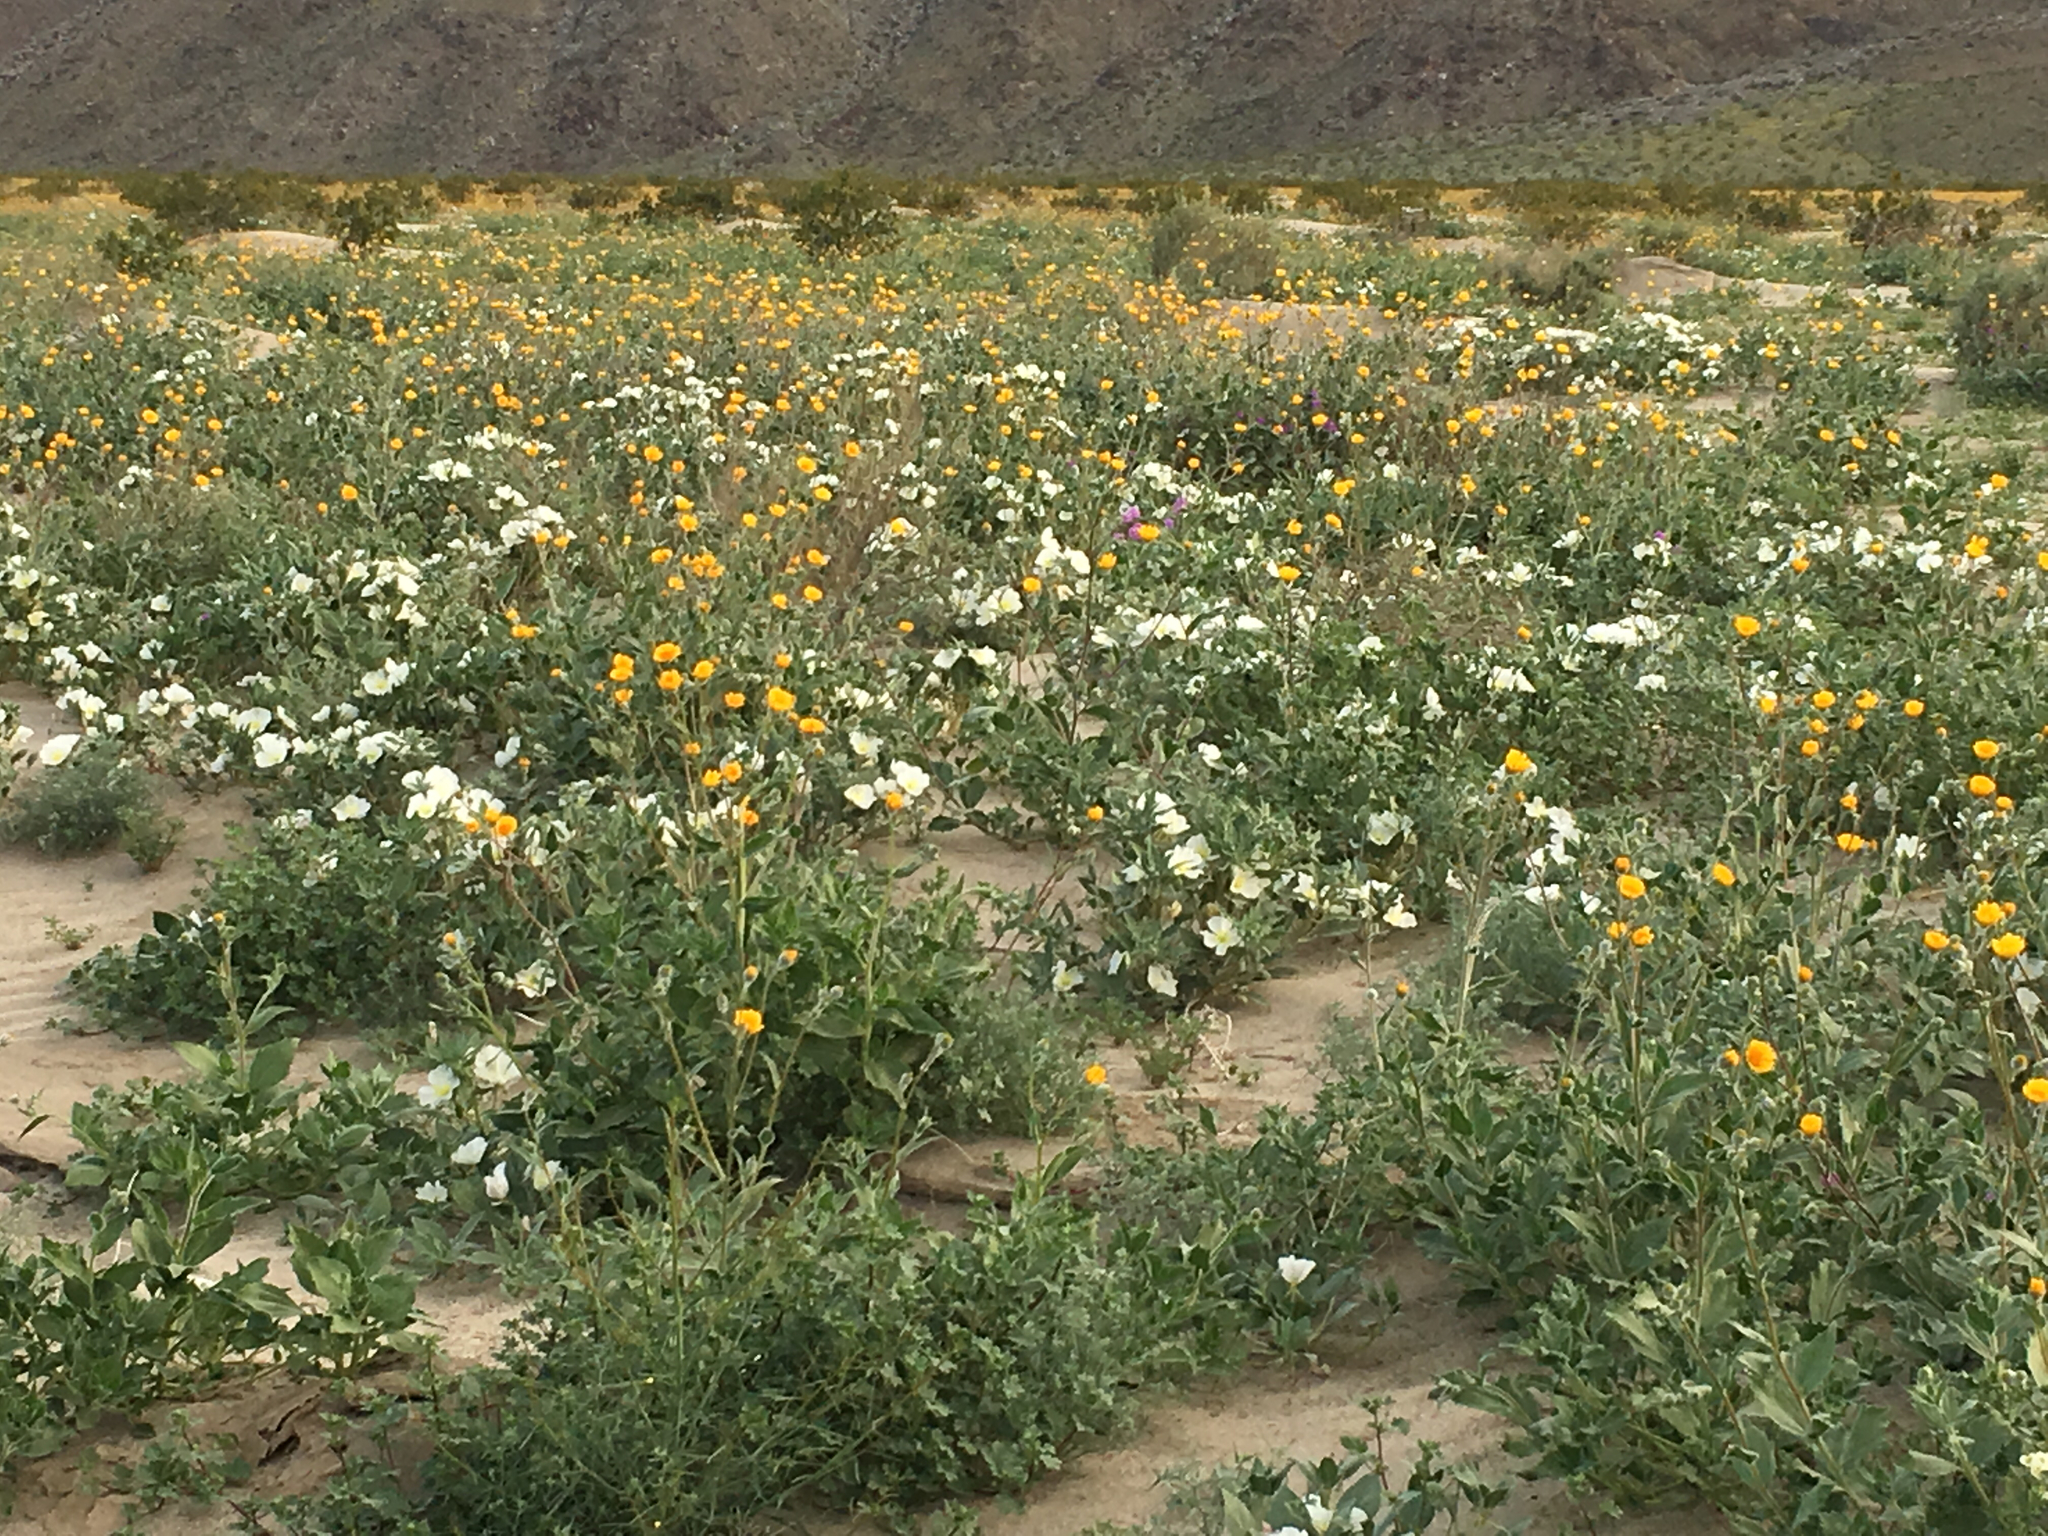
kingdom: Plantae
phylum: Tracheophyta
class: Magnoliopsida
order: Myrtales
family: Onagraceae
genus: Oenothera
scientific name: Oenothera deltoides
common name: Basket evening-primrose
